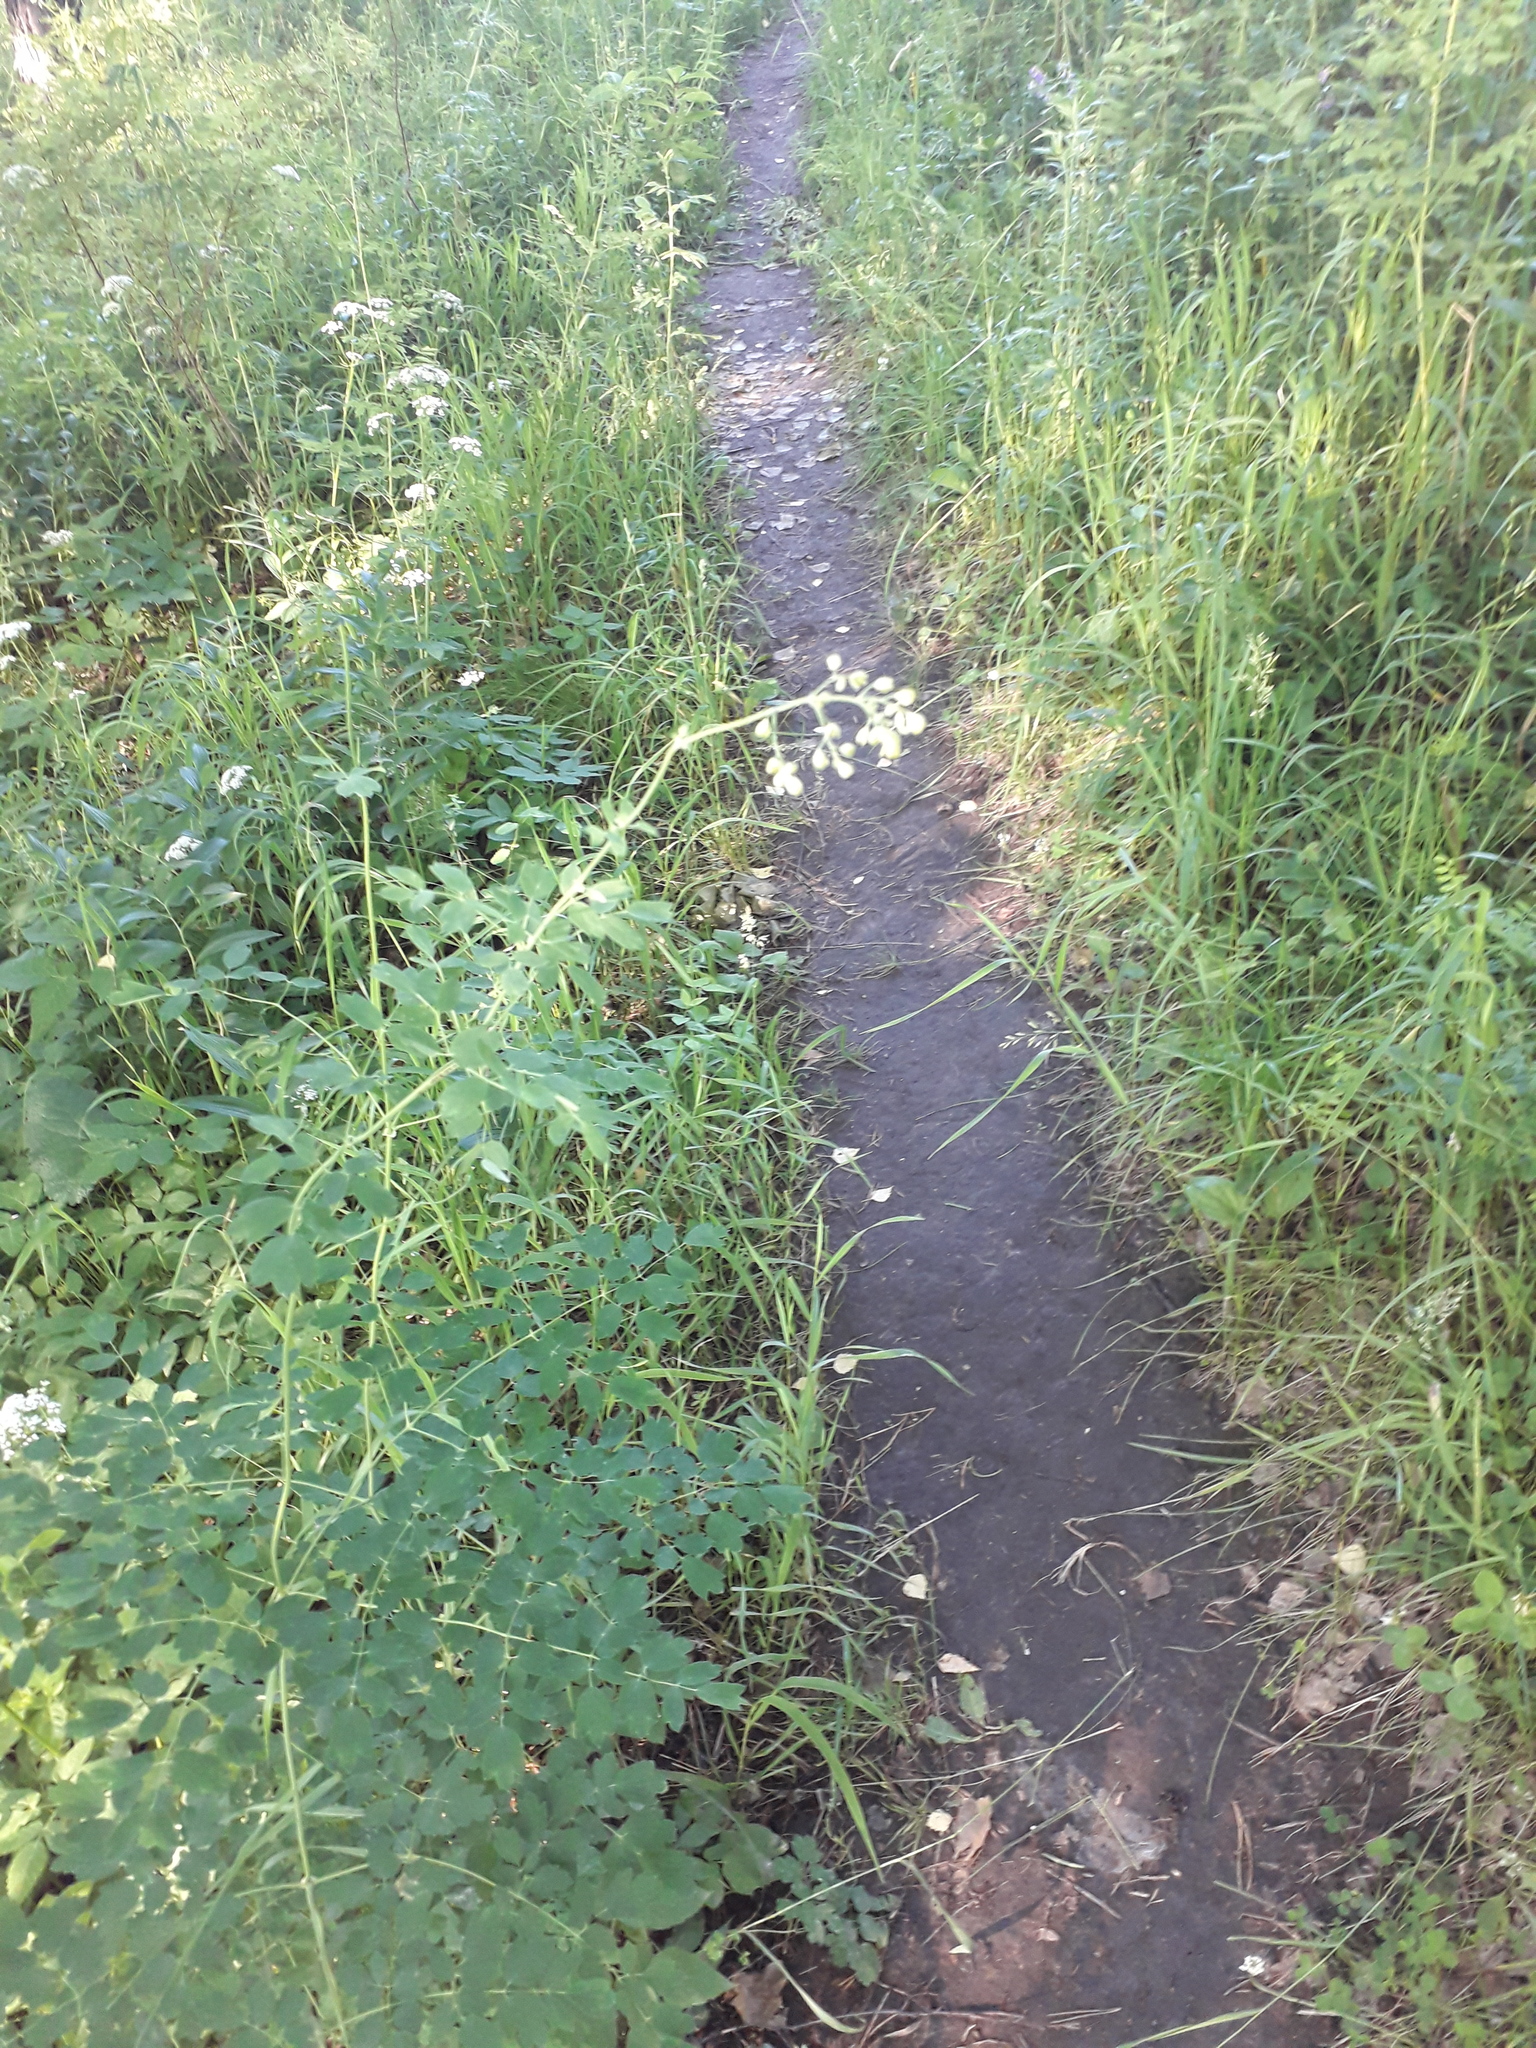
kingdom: Plantae
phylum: Tracheophyta
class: Magnoliopsida
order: Ranunculales
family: Ranunculaceae
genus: Thalictrum
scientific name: Thalictrum minus
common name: Lesser meadow-rue
